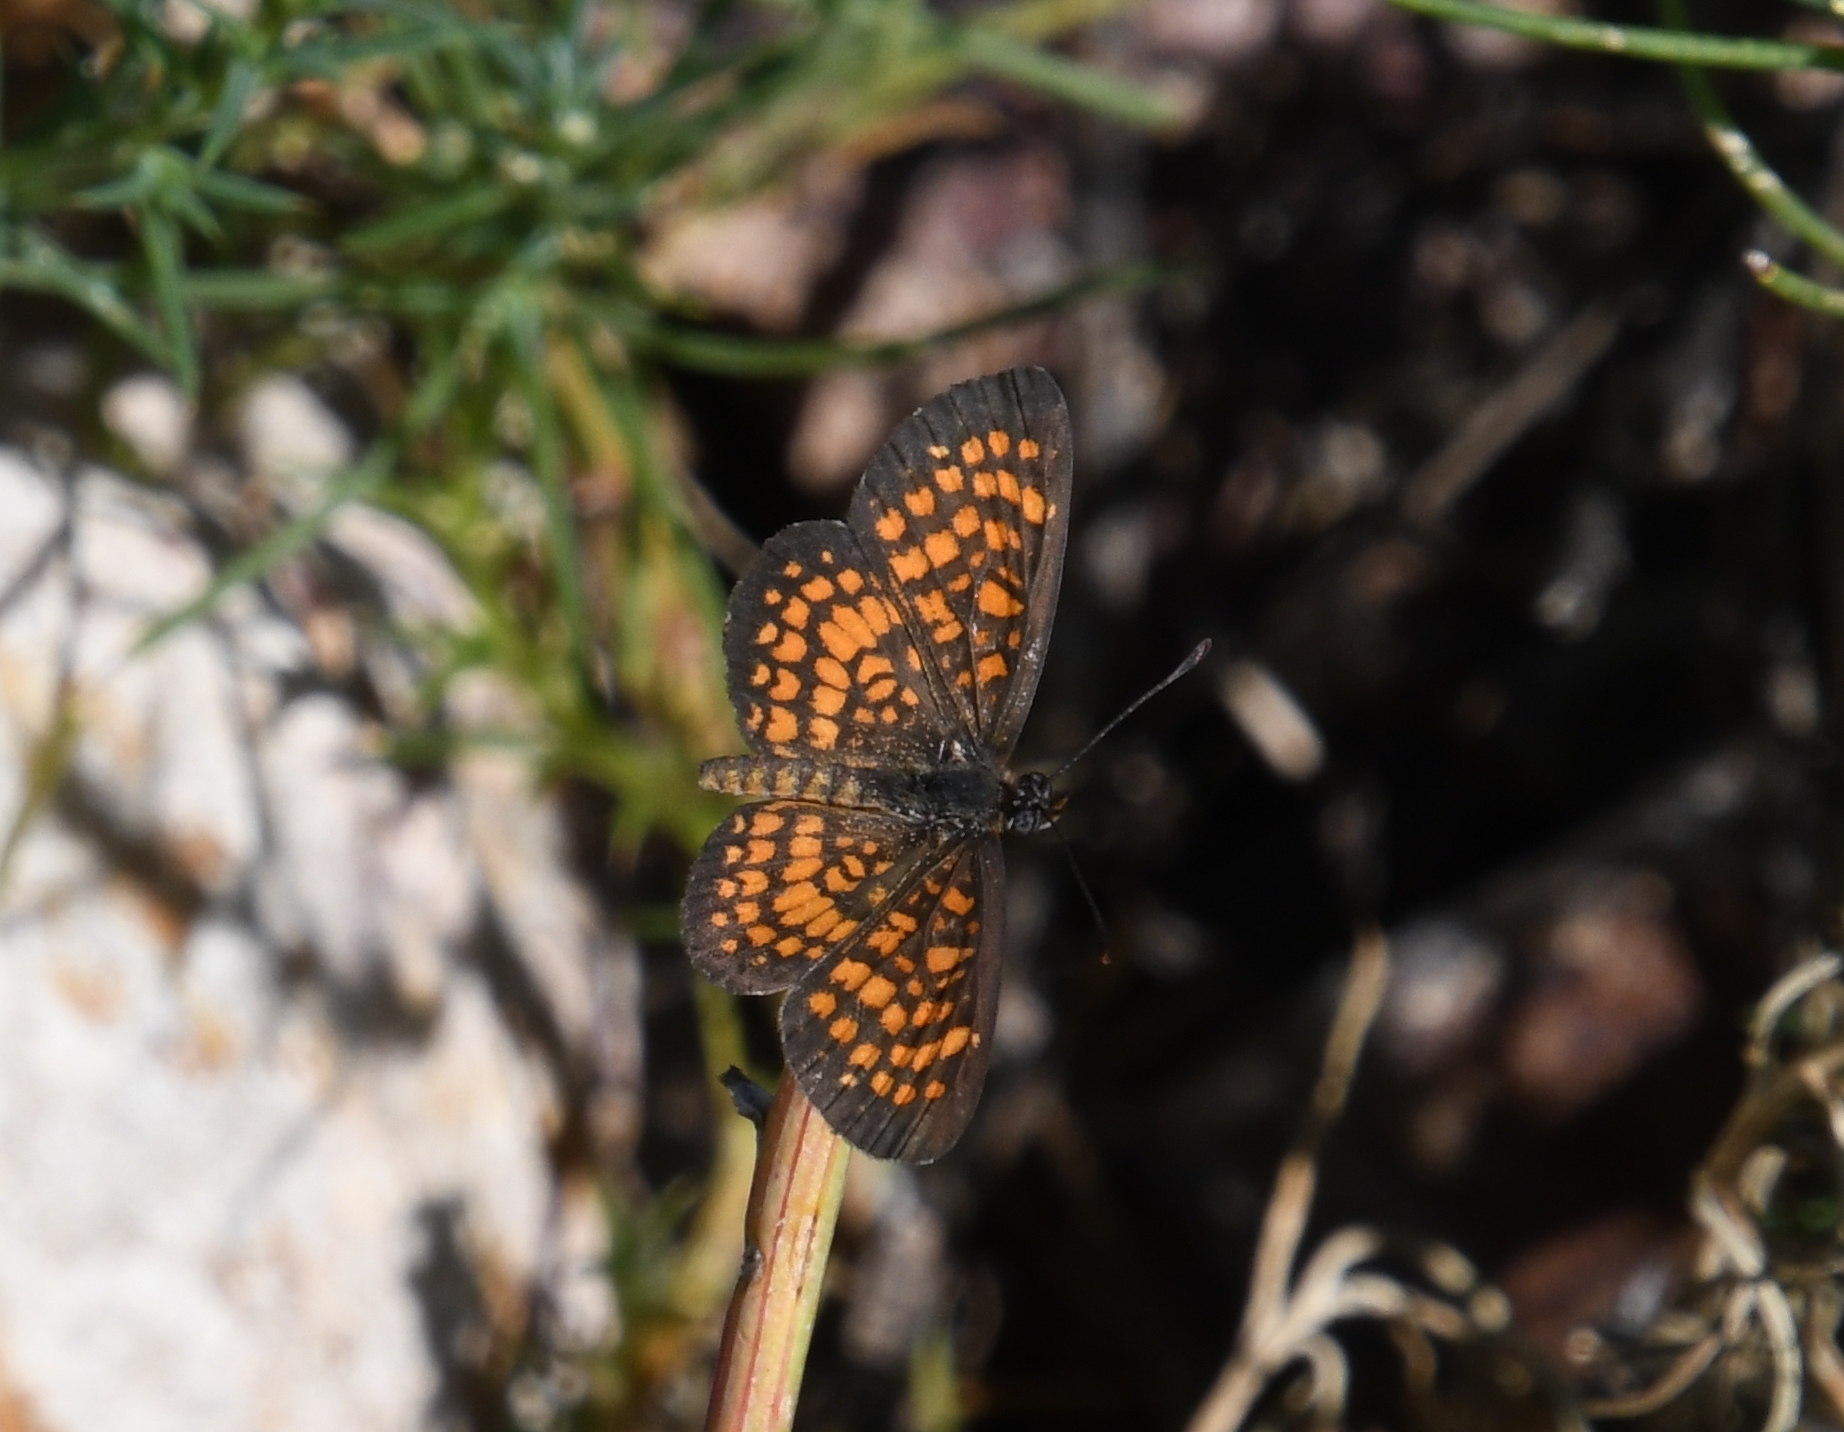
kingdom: Animalia
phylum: Arthropoda
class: Insecta
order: Lepidoptera
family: Nymphalidae
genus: Texola
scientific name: Texola
